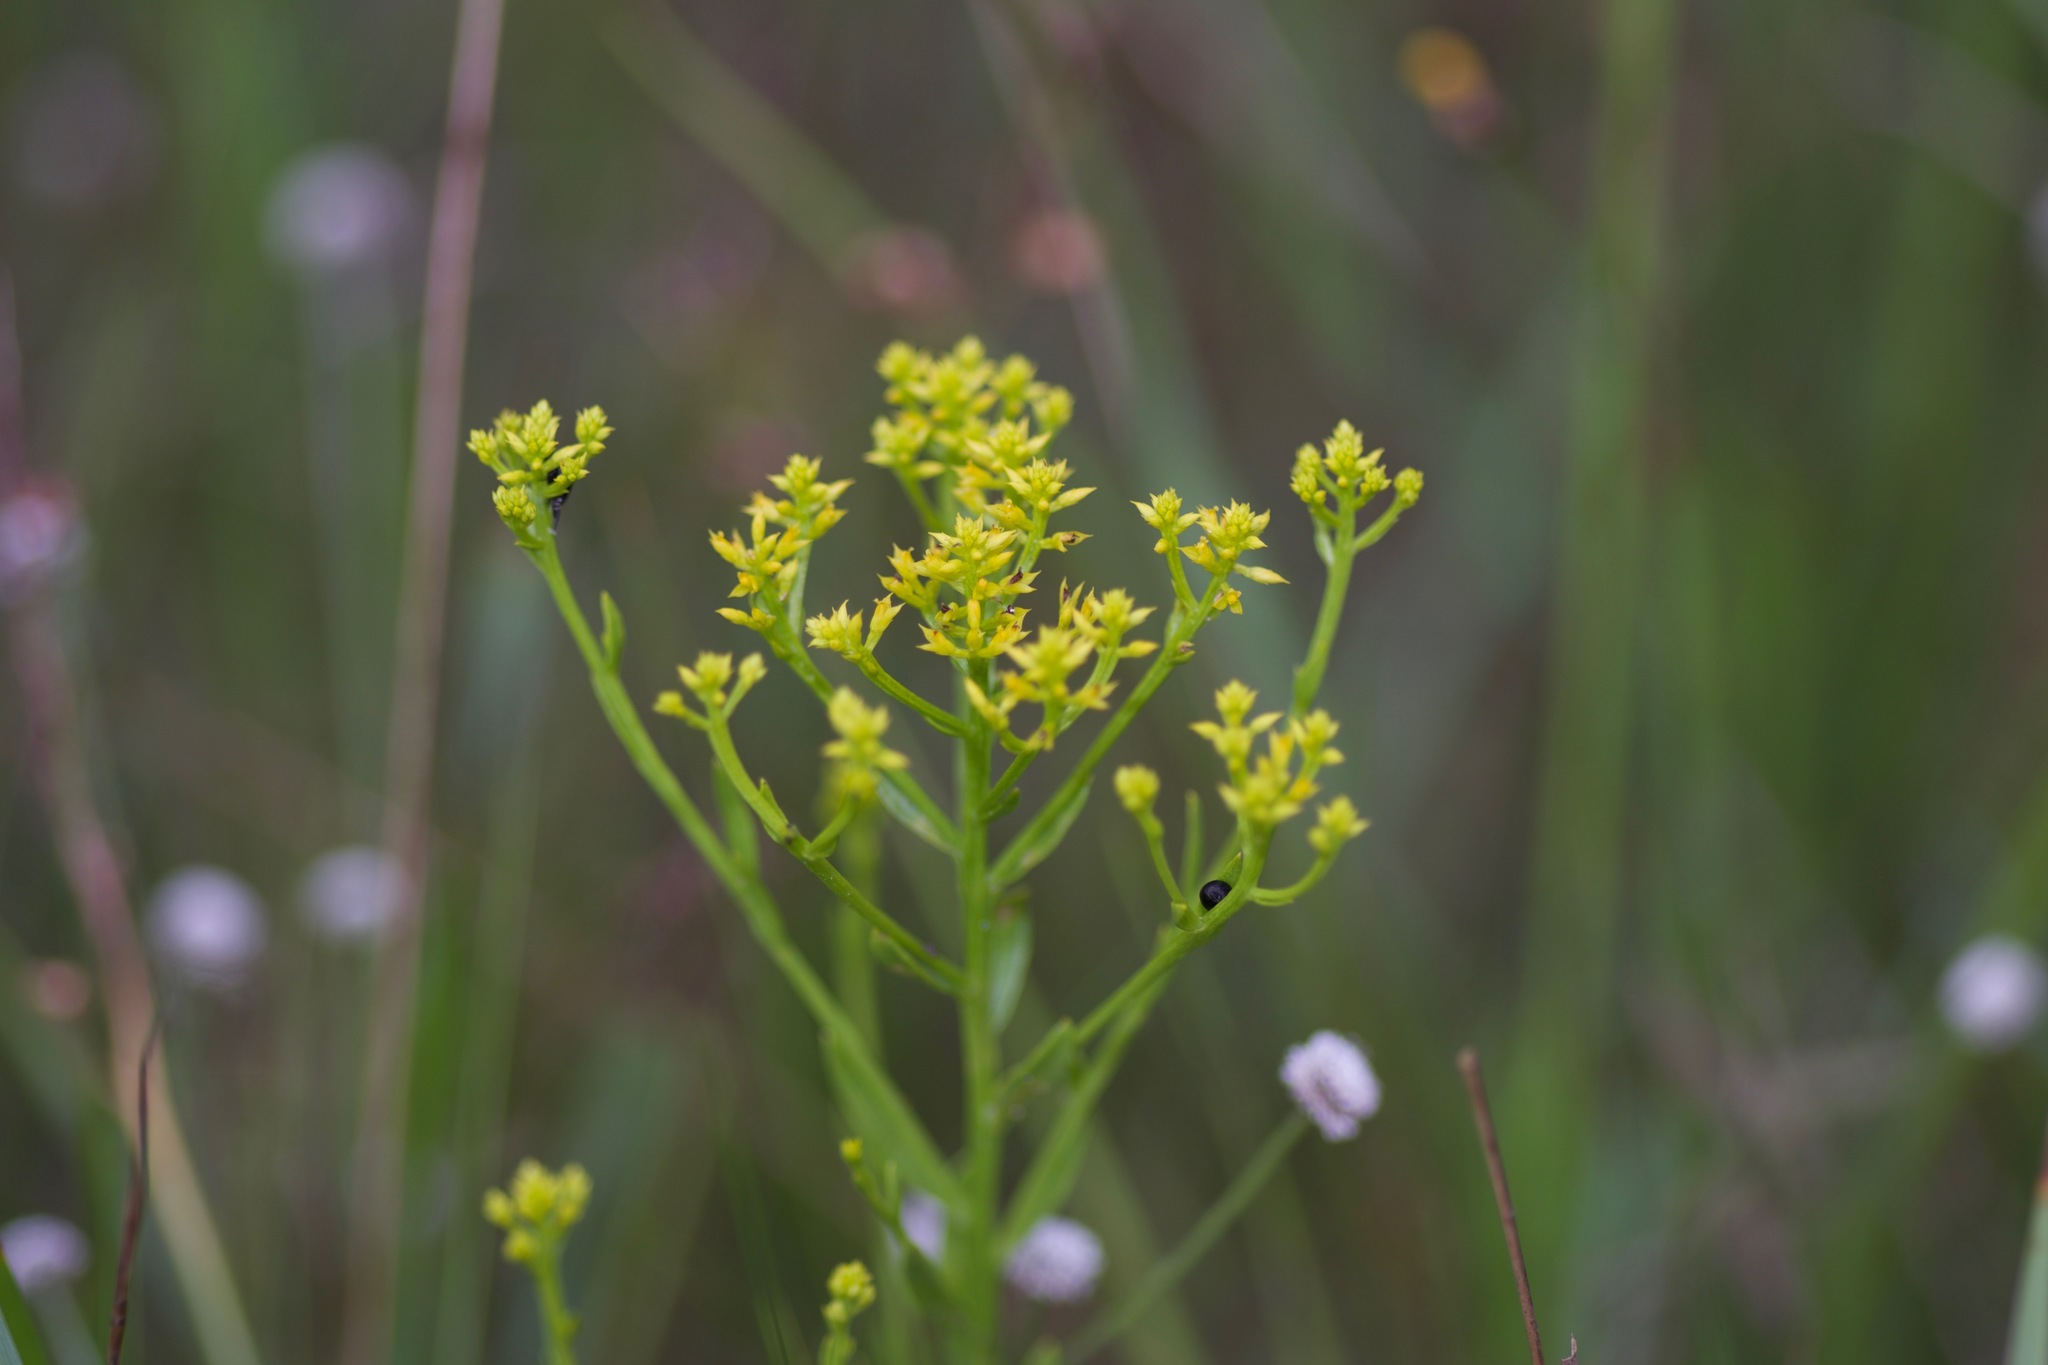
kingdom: Plantae
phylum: Tracheophyta
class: Magnoliopsida
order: Fabales
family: Polygalaceae
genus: Polygala
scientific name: Polygala ramosa
